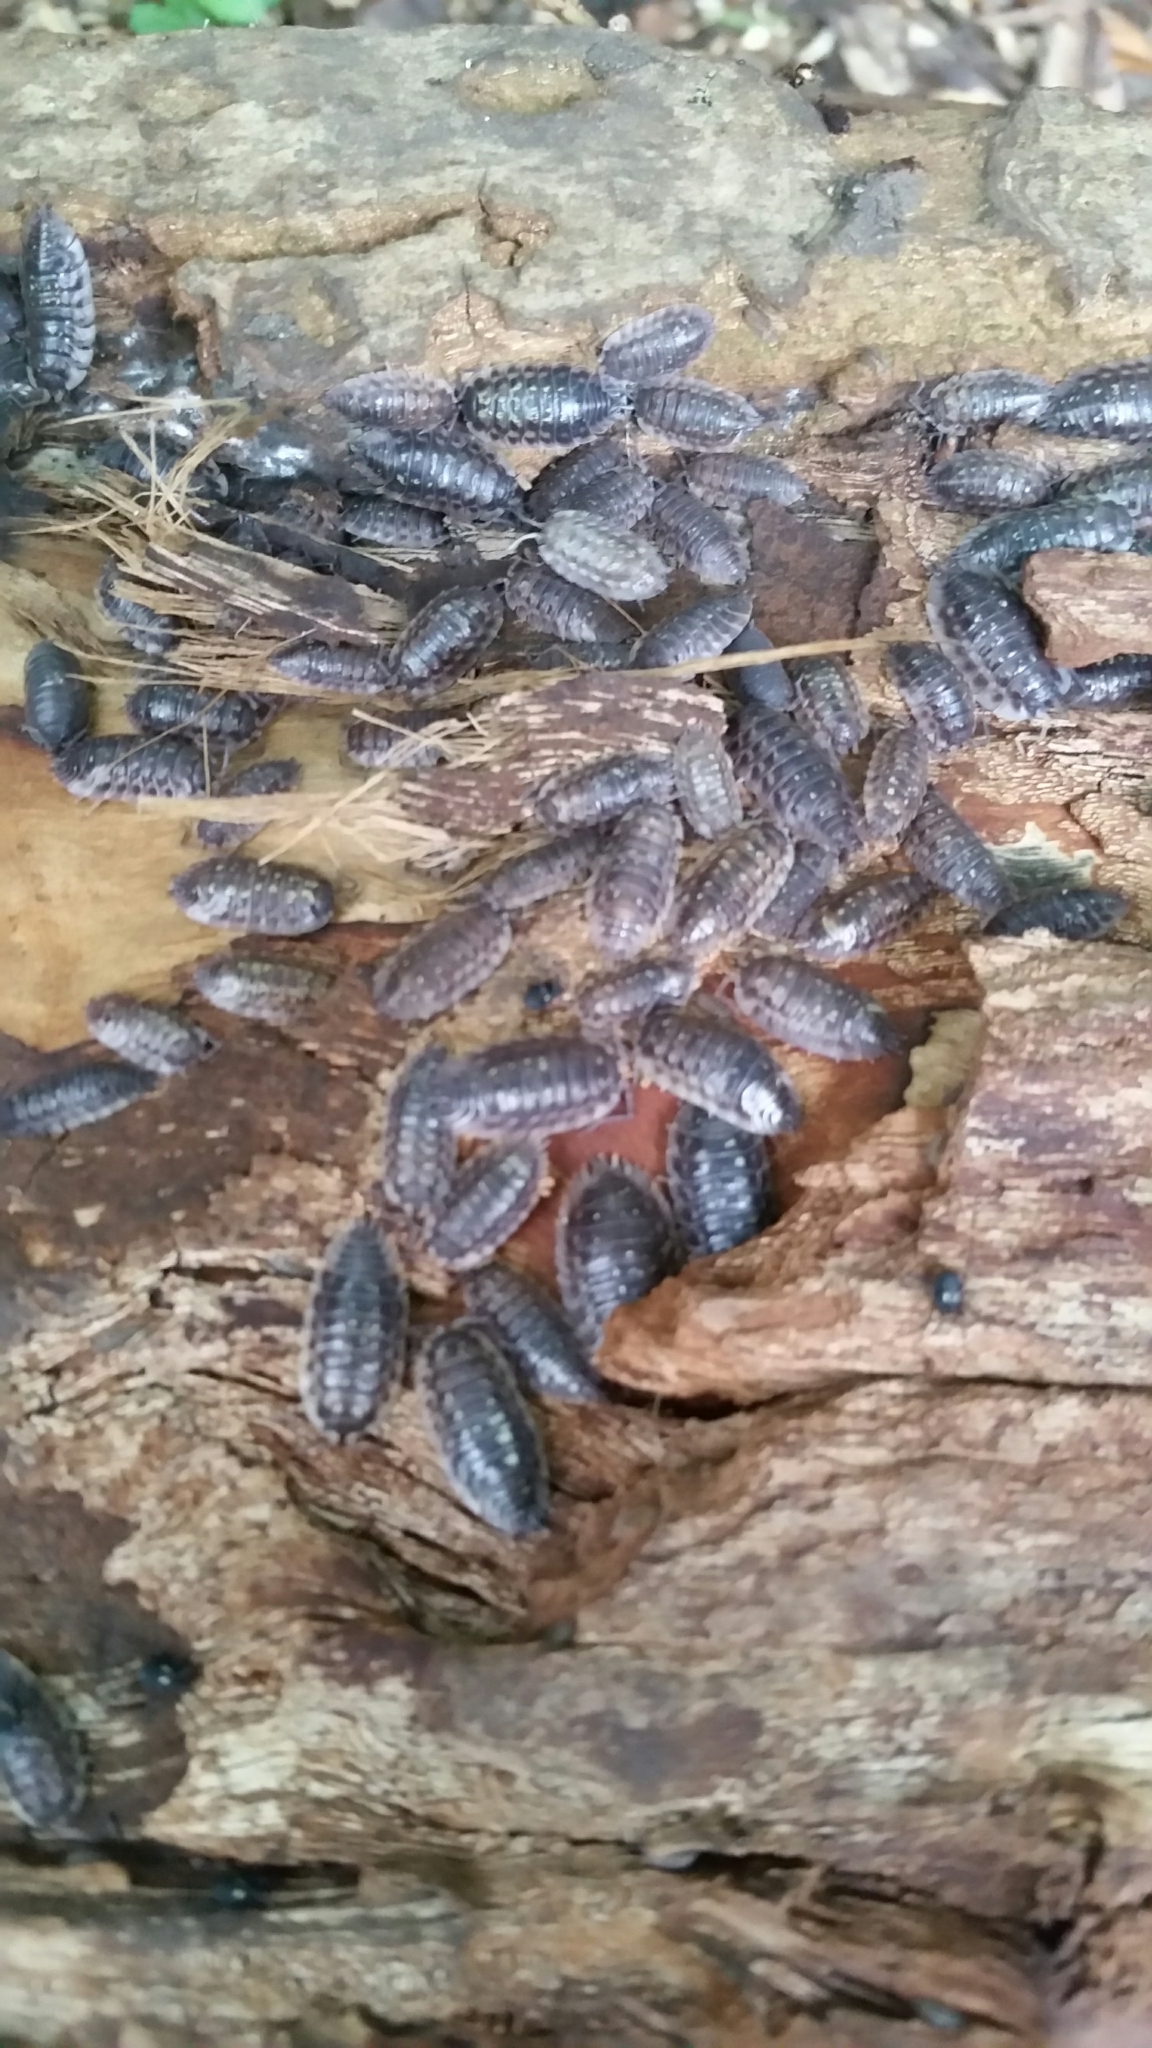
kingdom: Animalia
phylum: Arthropoda
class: Malacostraca
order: Isopoda
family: Oniscidae
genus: Oniscus
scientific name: Oniscus asellus
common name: Common shiny woodlouse
